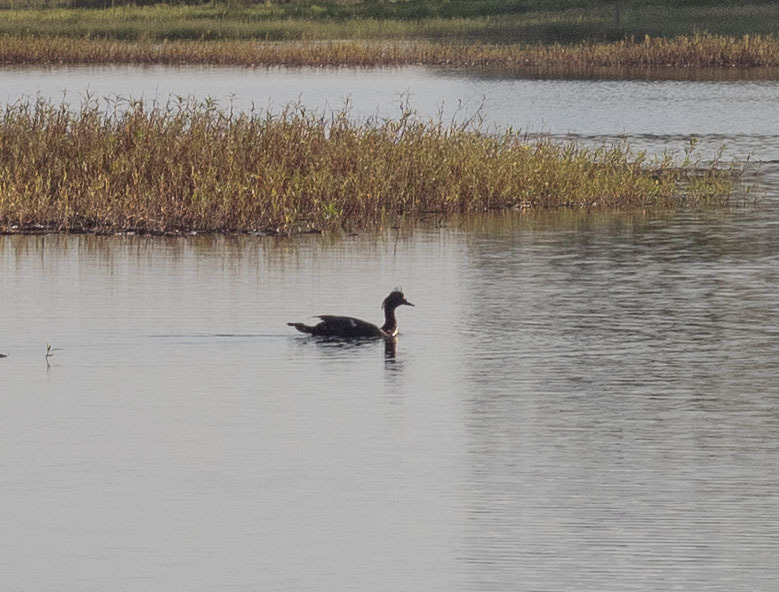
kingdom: Animalia
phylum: Chordata
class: Aves
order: Anseriformes
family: Anatidae
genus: Cairina
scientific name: Cairina moschata
